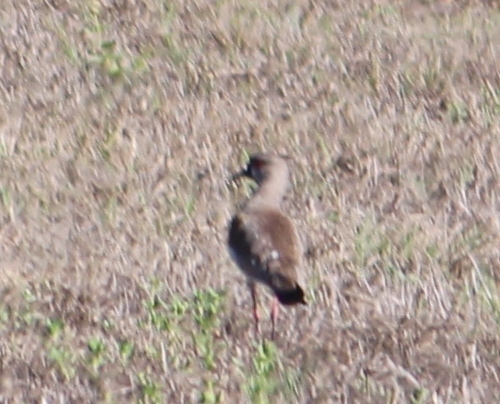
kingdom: Animalia
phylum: Chordata
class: Aves
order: Charadriiformes
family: Charadriidae
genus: Vanellus
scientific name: Vanellus chilensis
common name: Southern lapwing
